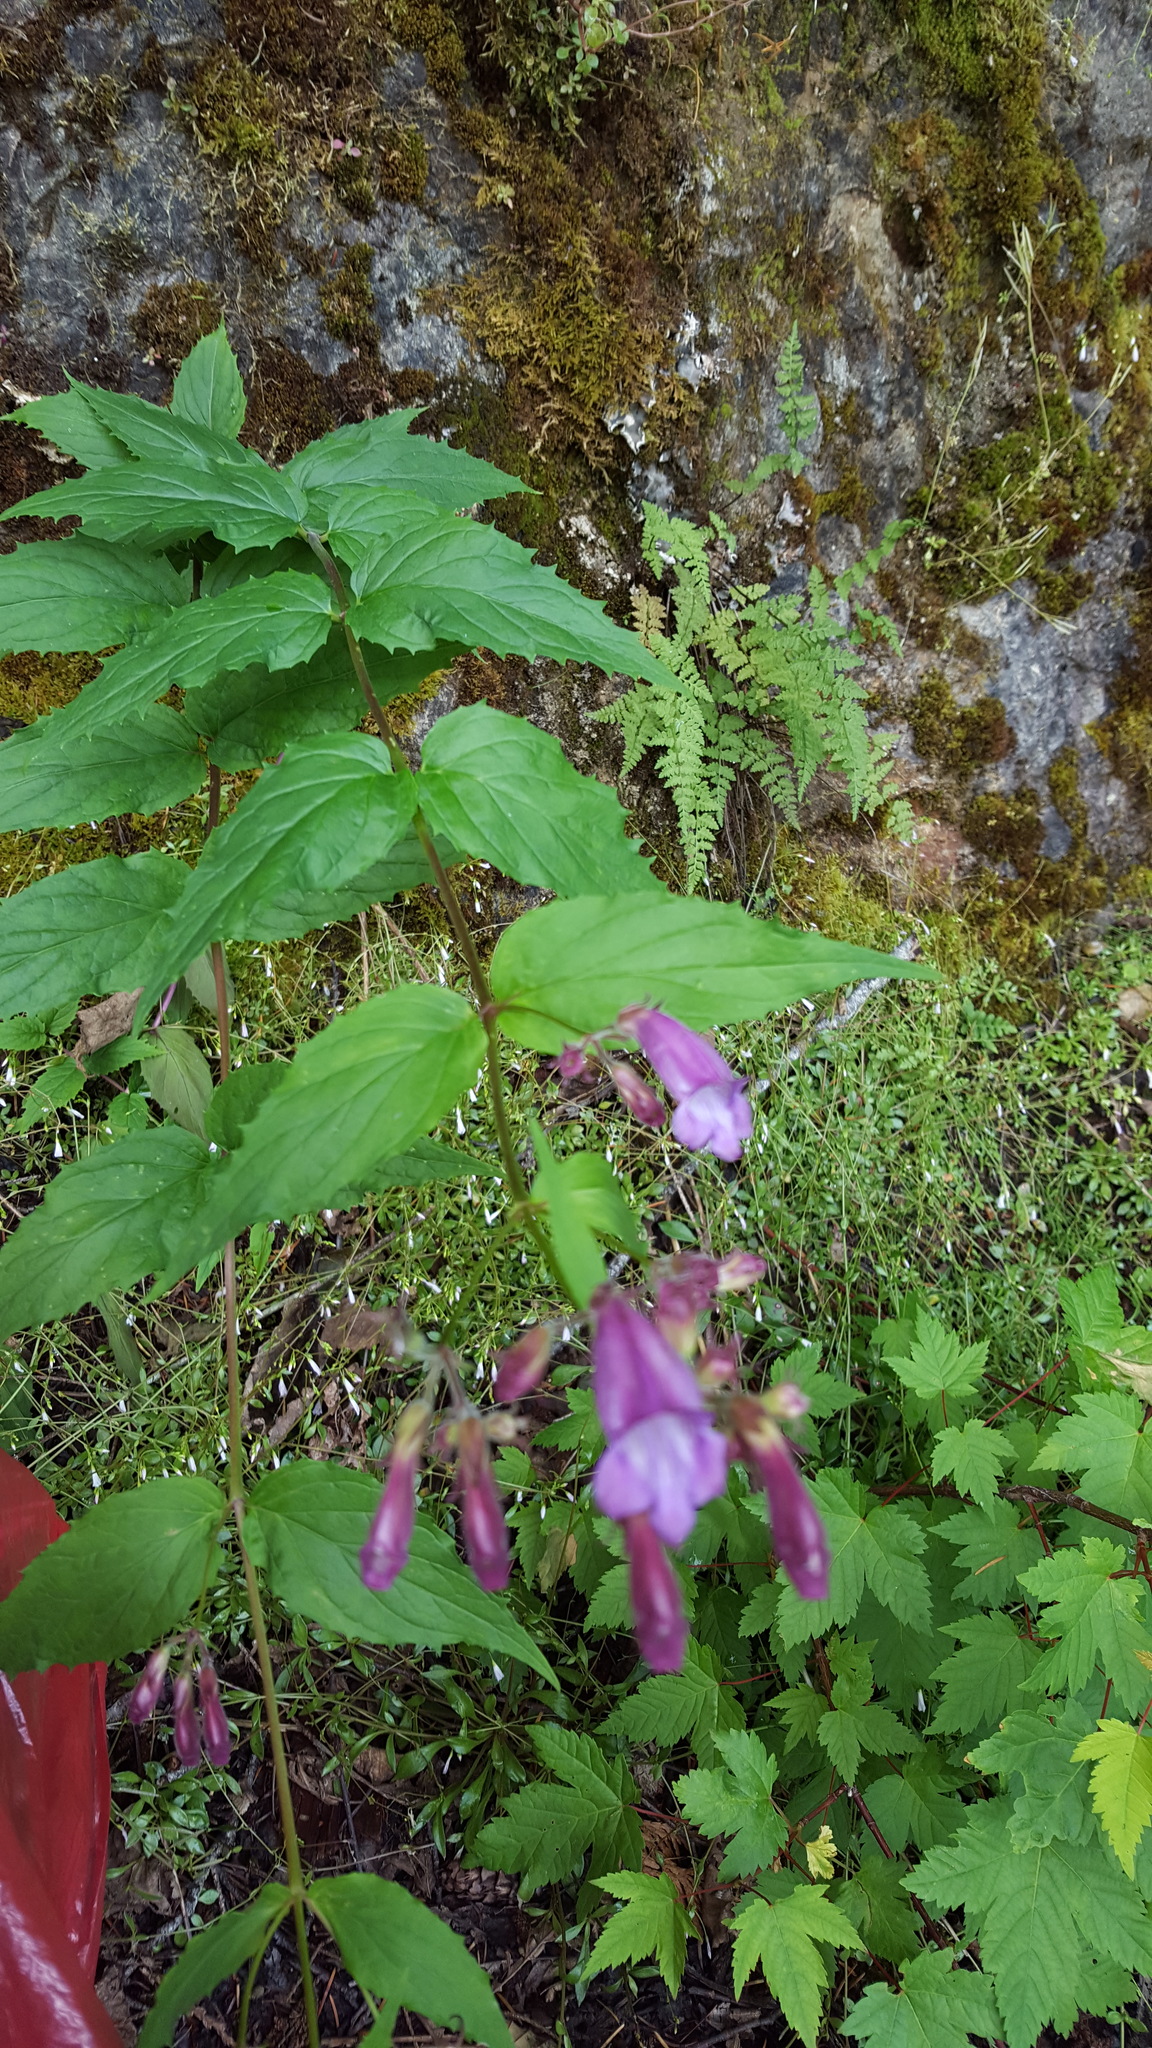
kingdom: Plantae
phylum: Tracheophyta
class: Magnoliopsida
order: Lamiales
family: Plantaginaceae
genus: Nothochelone
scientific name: Nothochelone nemorosa
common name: Woodland beardtongue
